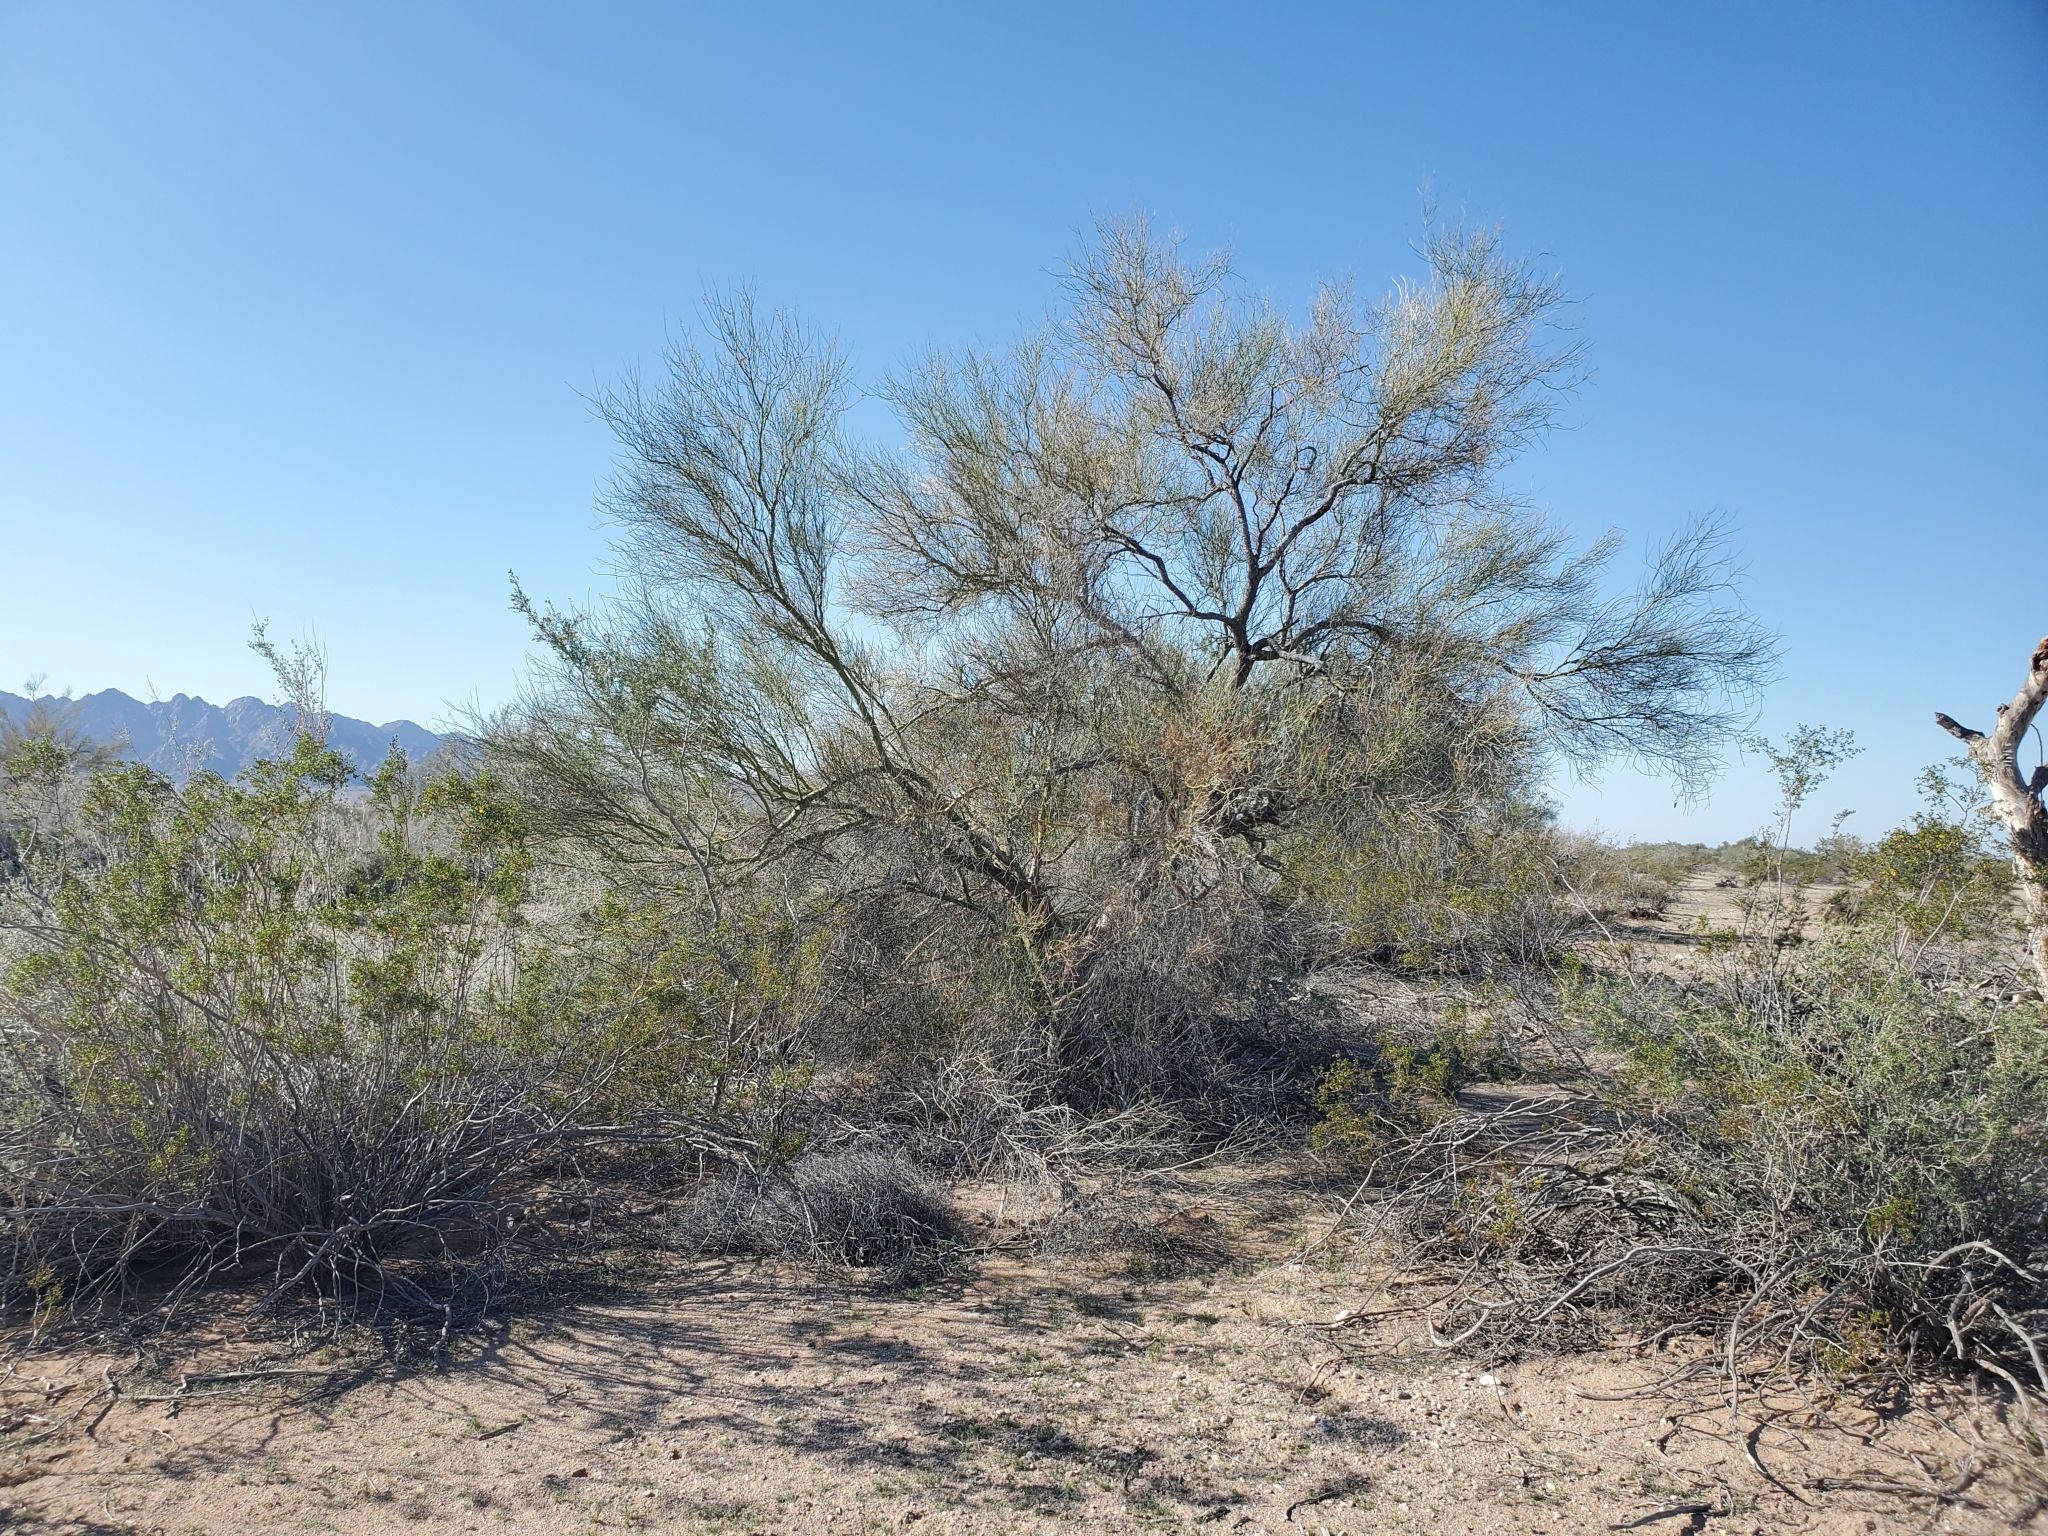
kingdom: Plantae
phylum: Tracheophyta
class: Magnoliopsida
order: Fabales
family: Fabaceae
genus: Parkinsonia
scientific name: Parkinsonia florida
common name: Blue paloverde
